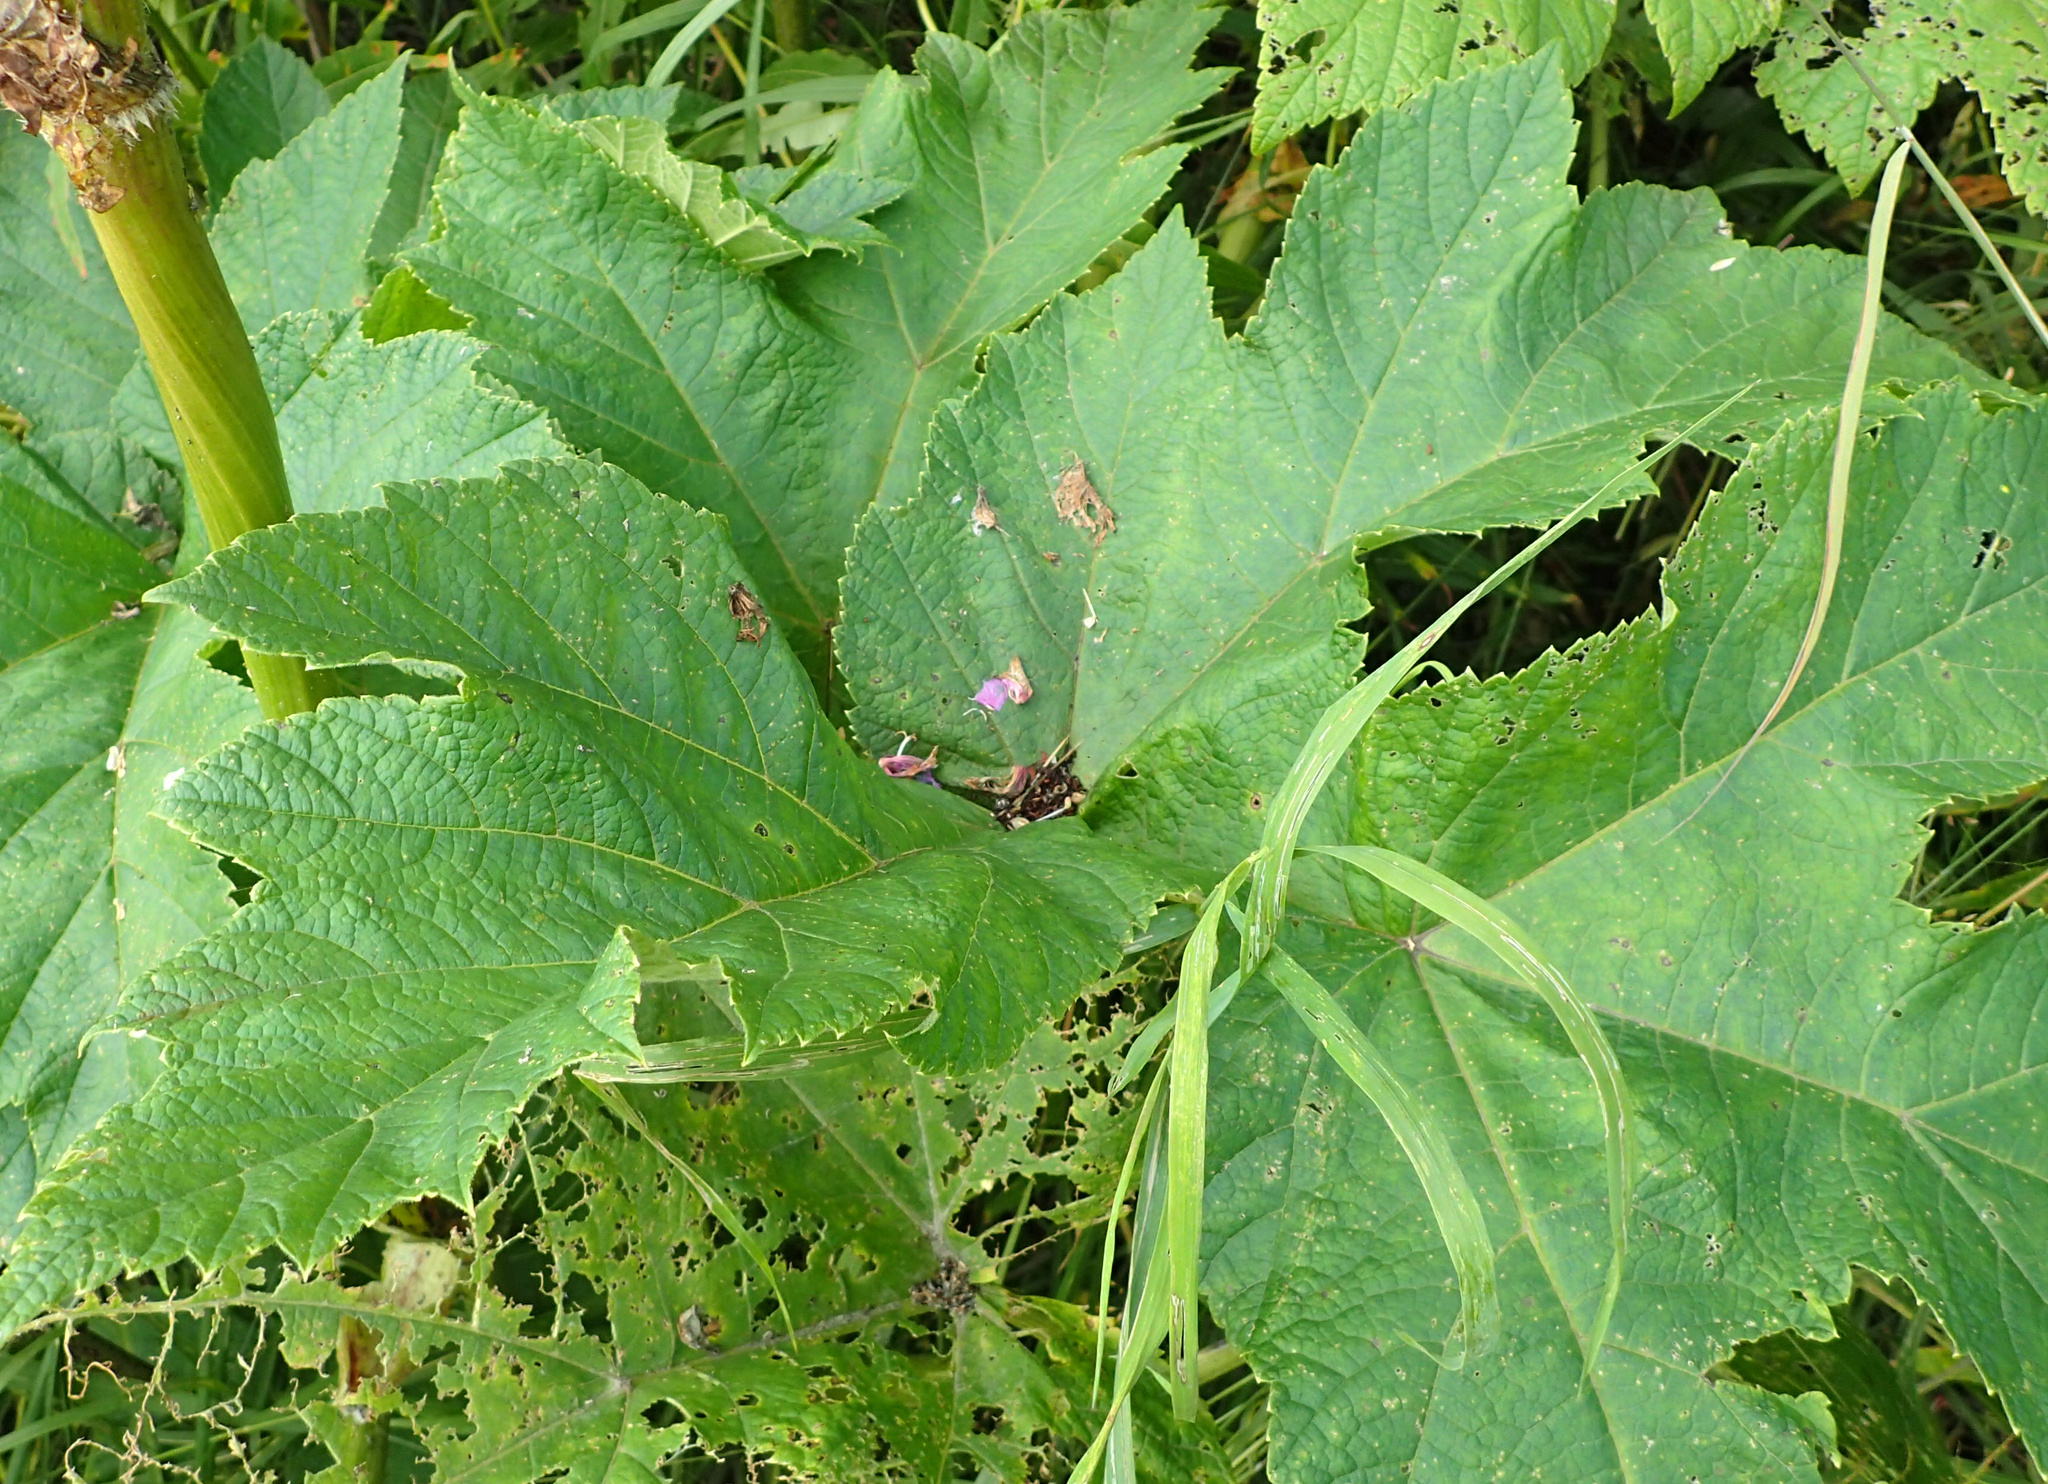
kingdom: Plantae
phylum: Tracheophyta
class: Magnoliopsida
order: Apiales
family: Apiaceae
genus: Heracleum
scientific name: Heracleum maximum
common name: American cow parsnip
